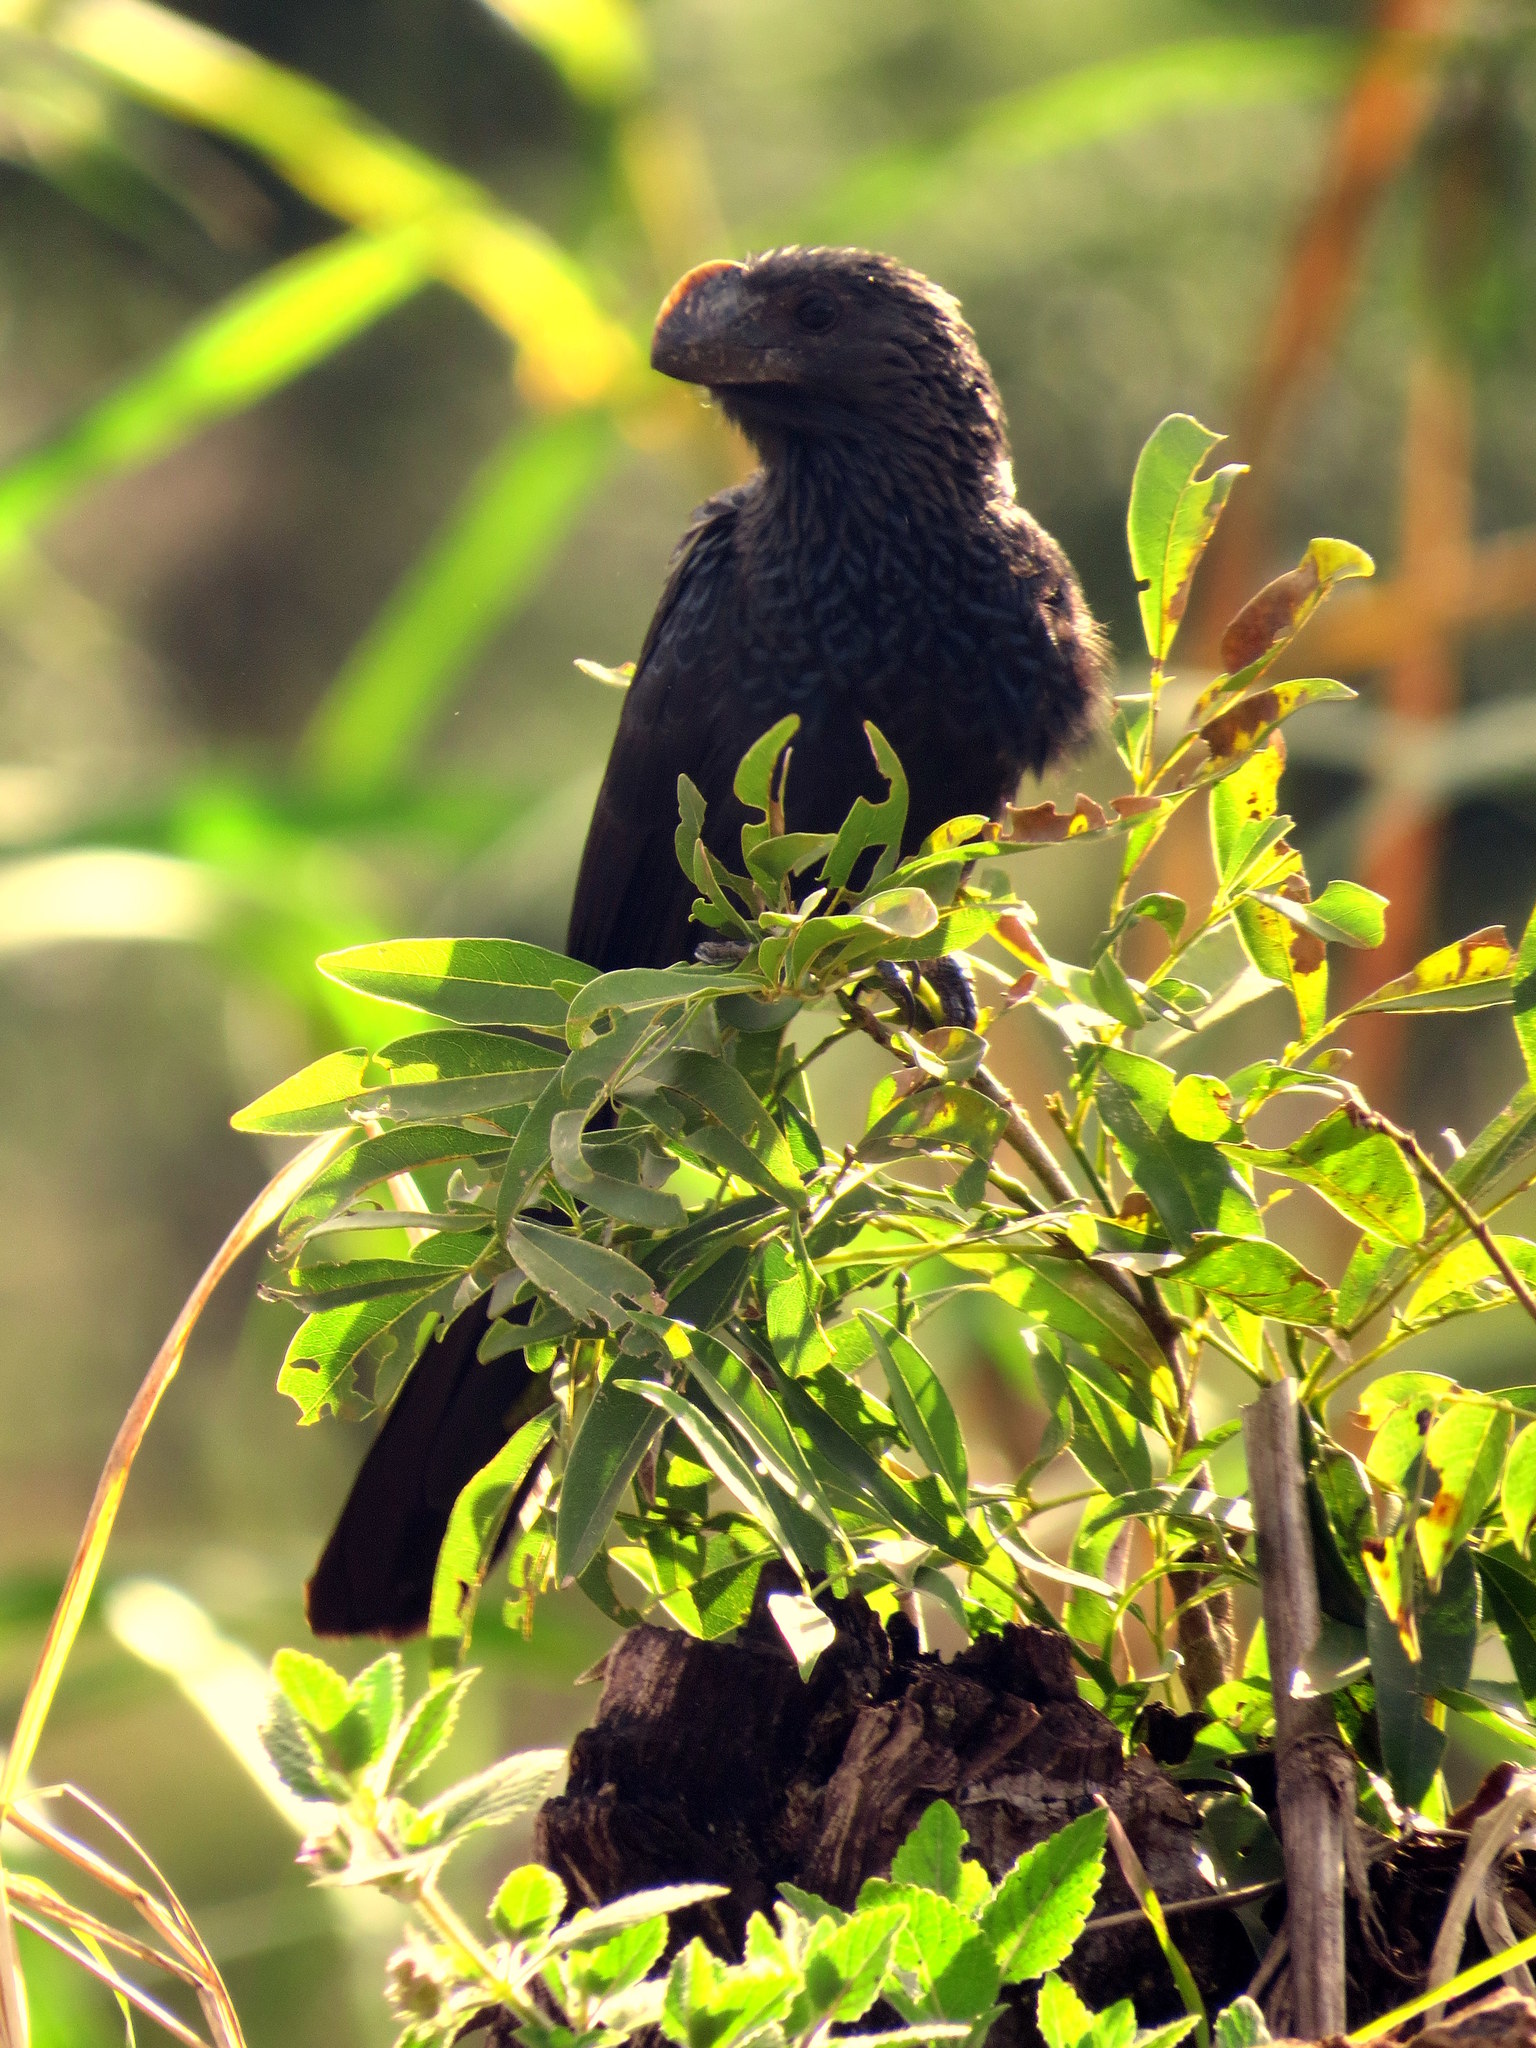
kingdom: Animalia
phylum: Chordata
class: Aves
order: Cuculiformes
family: Cuculidae
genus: Crotophaga
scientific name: Crotophaga ani
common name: Smooth-billed ani
